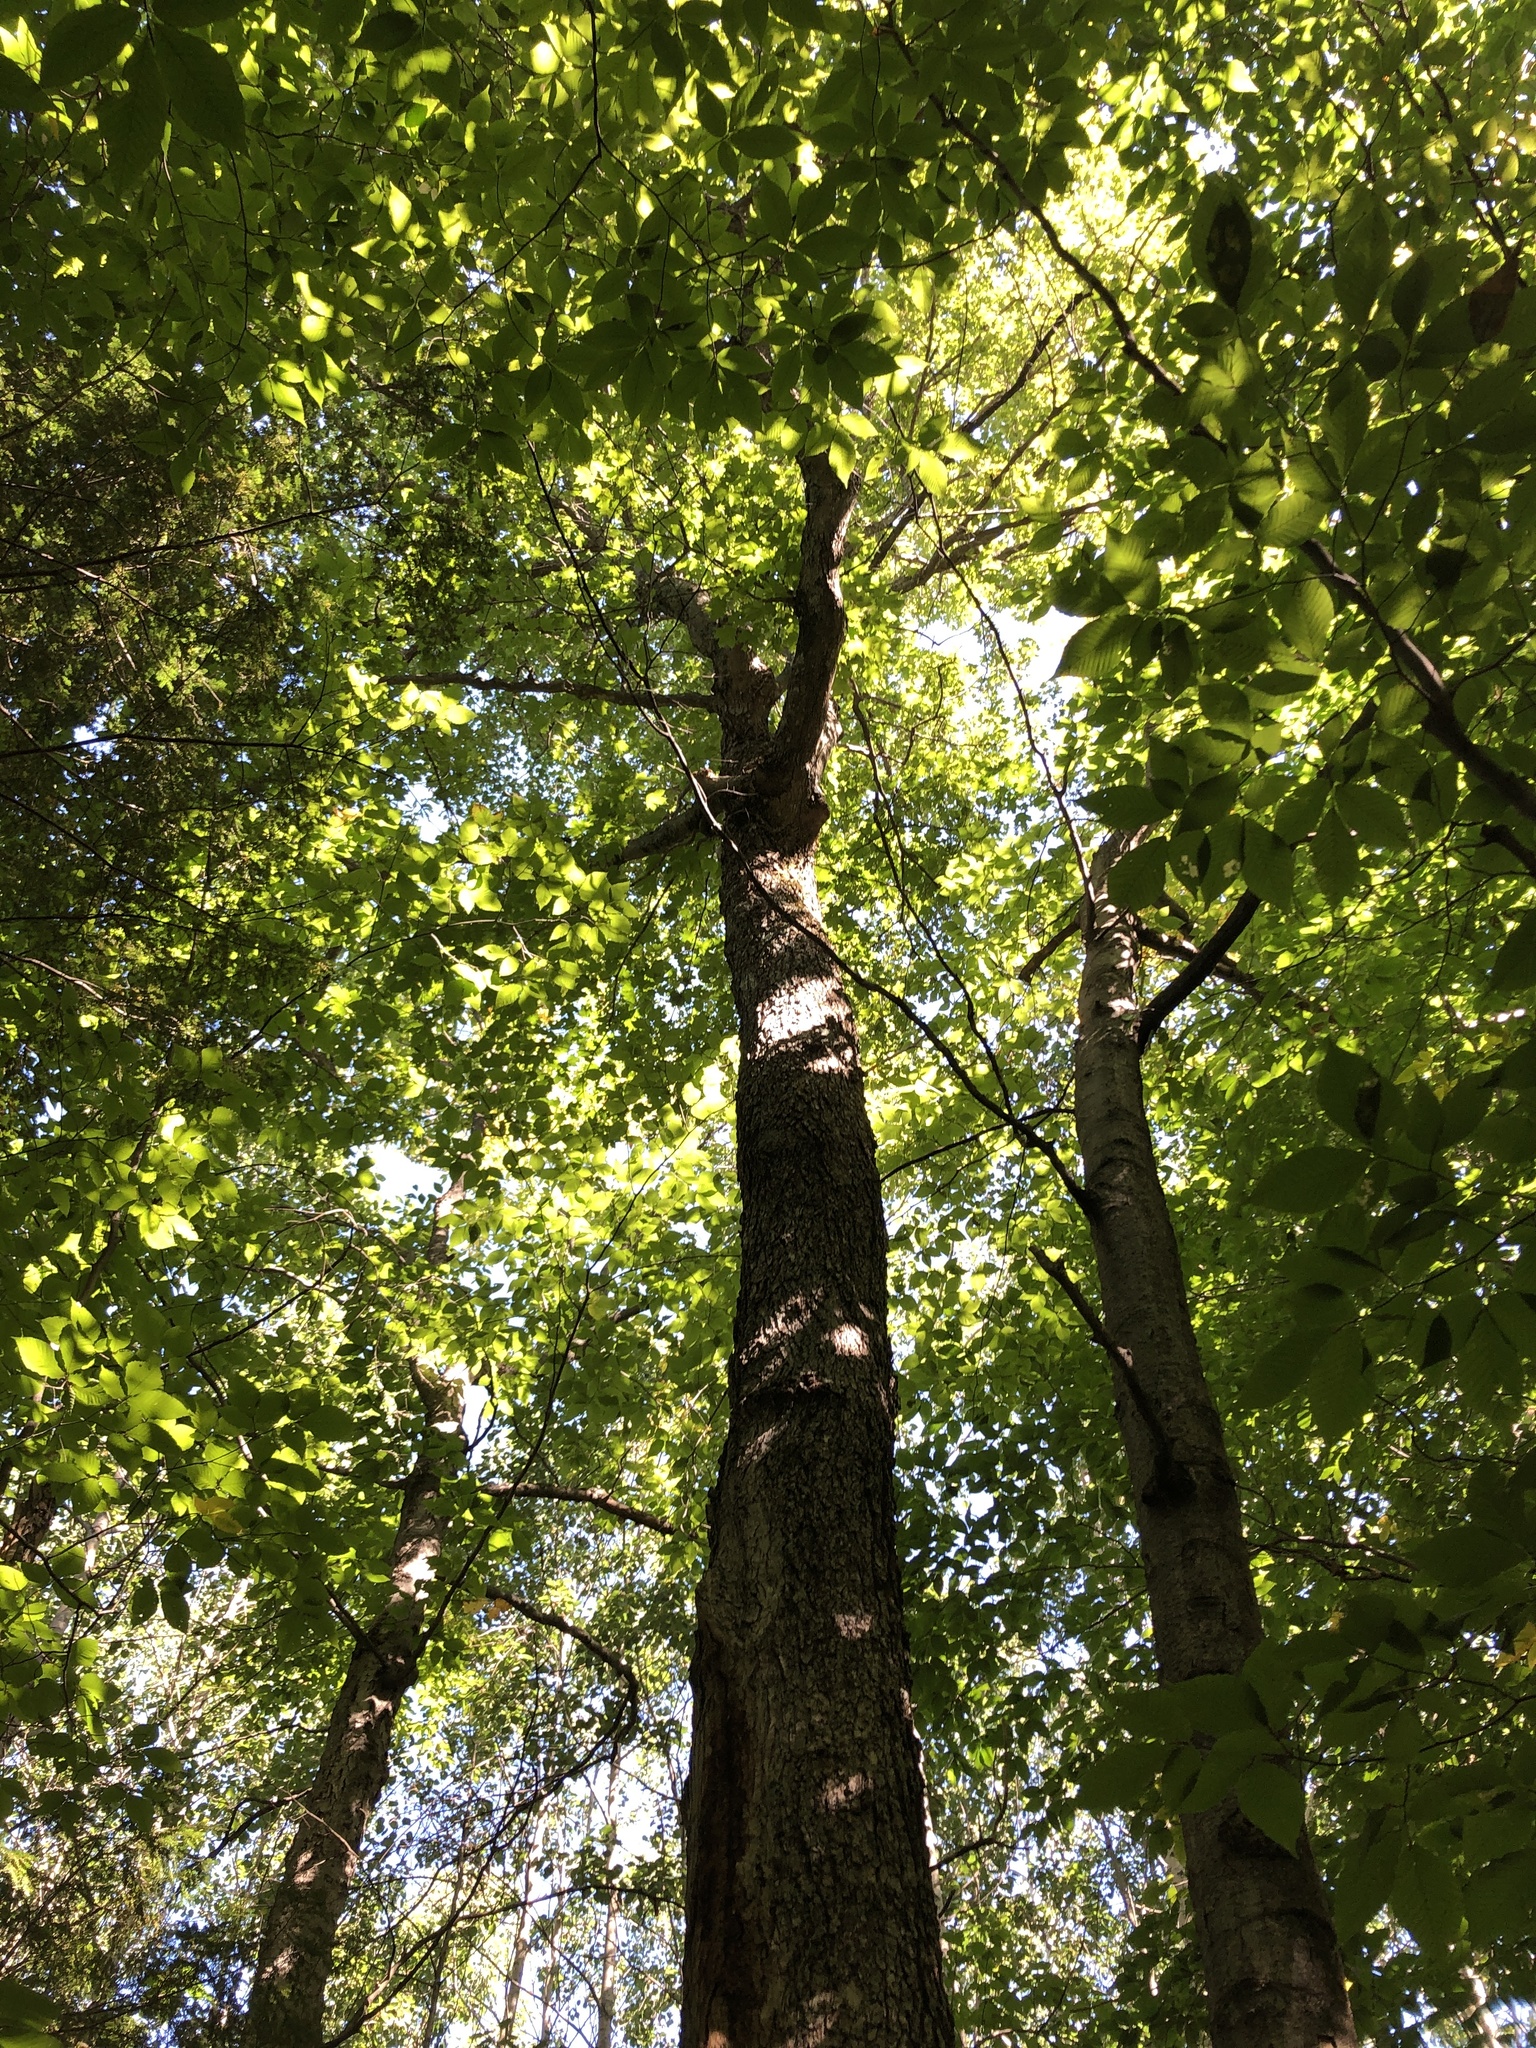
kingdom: Plantae
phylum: Tracheophyta
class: Magnoliopsida
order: Sapindales
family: Sapindaceae
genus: Acer
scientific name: Acer saccharum
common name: Sugar maple
